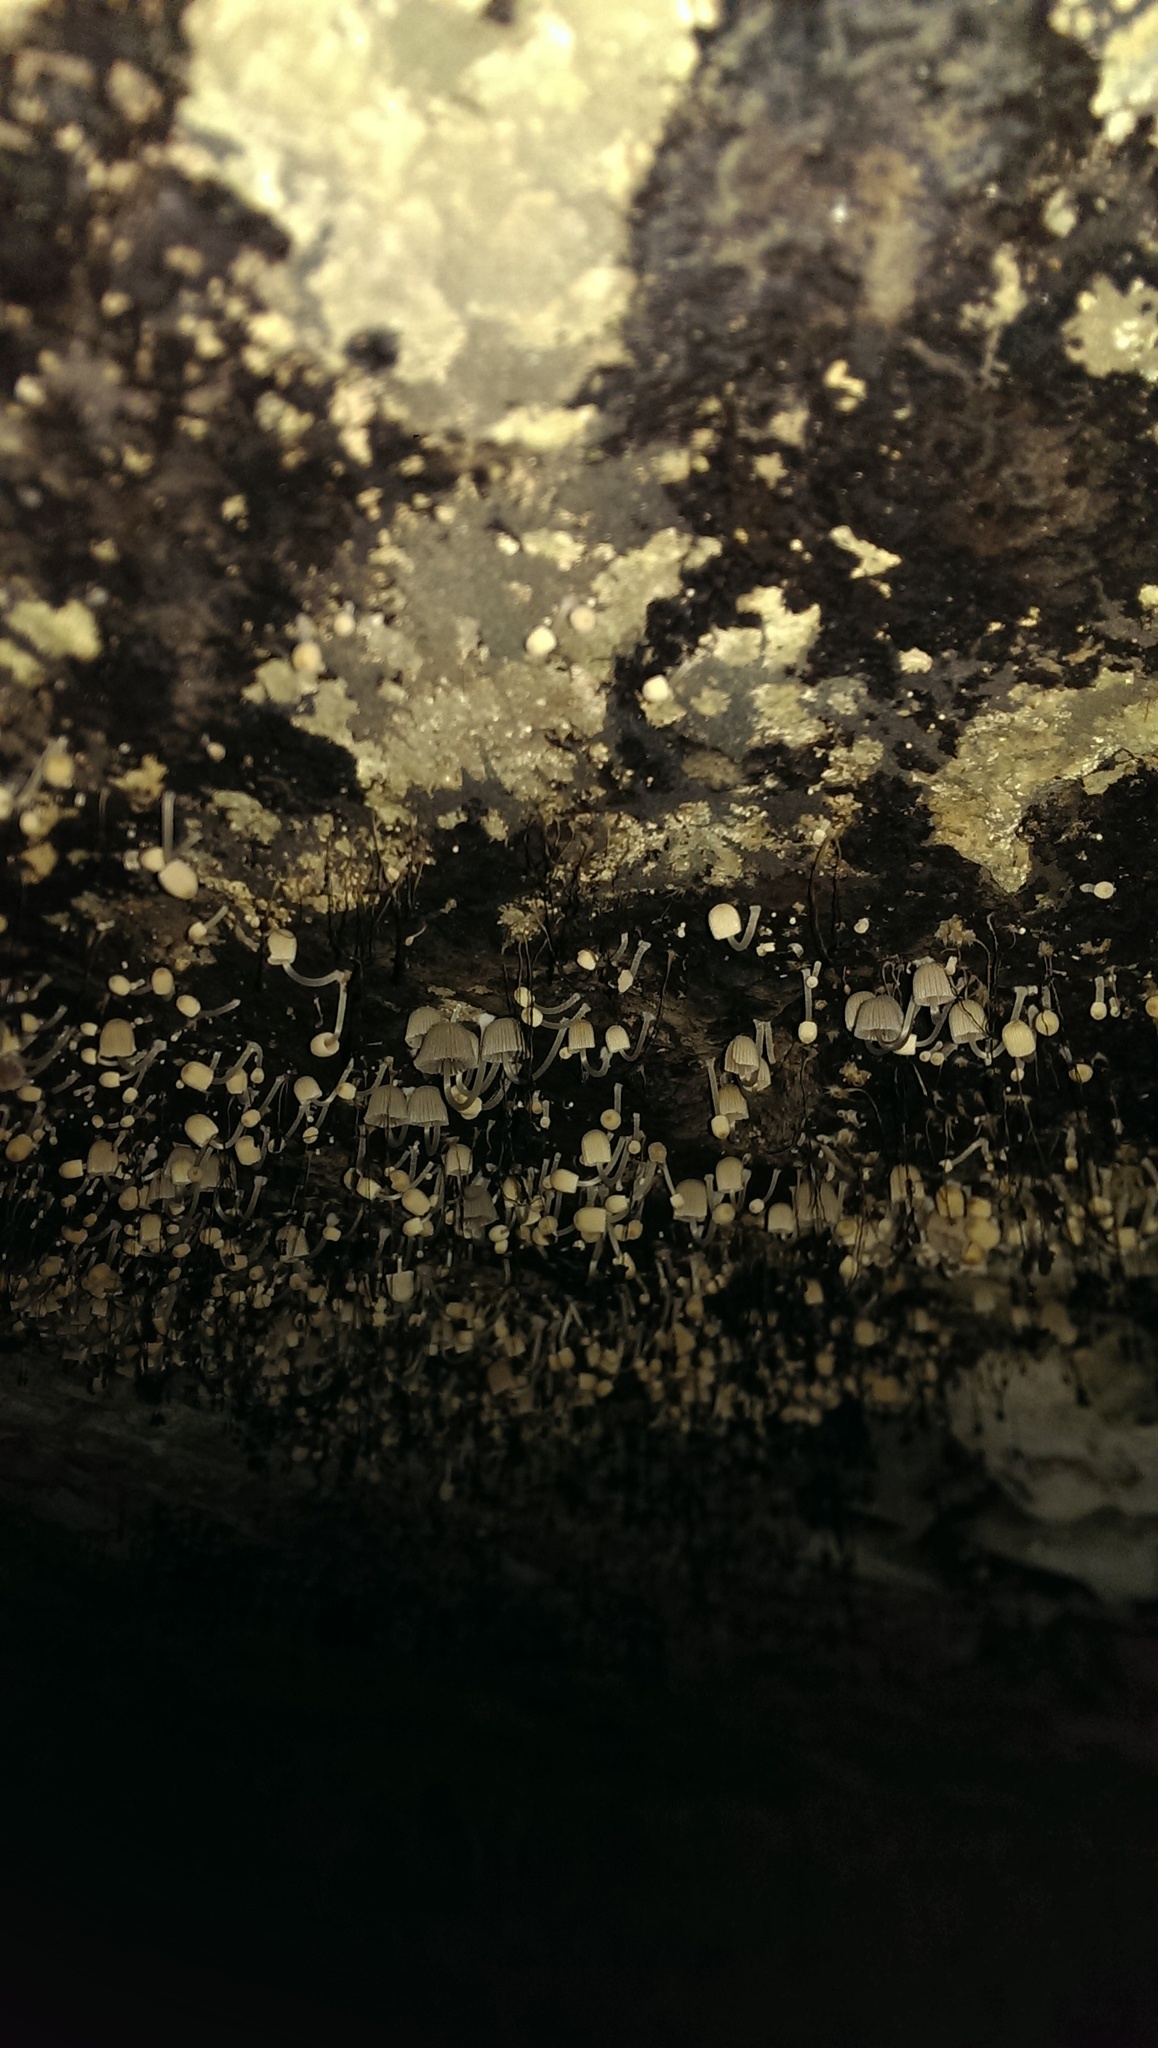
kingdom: Fungi
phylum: Basidiomycota
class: Agaricomycetes
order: Agaricales
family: Psathyrellaceae
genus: Coprinellus
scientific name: Coprinellus disseminatus
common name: Fairies' bonnets
